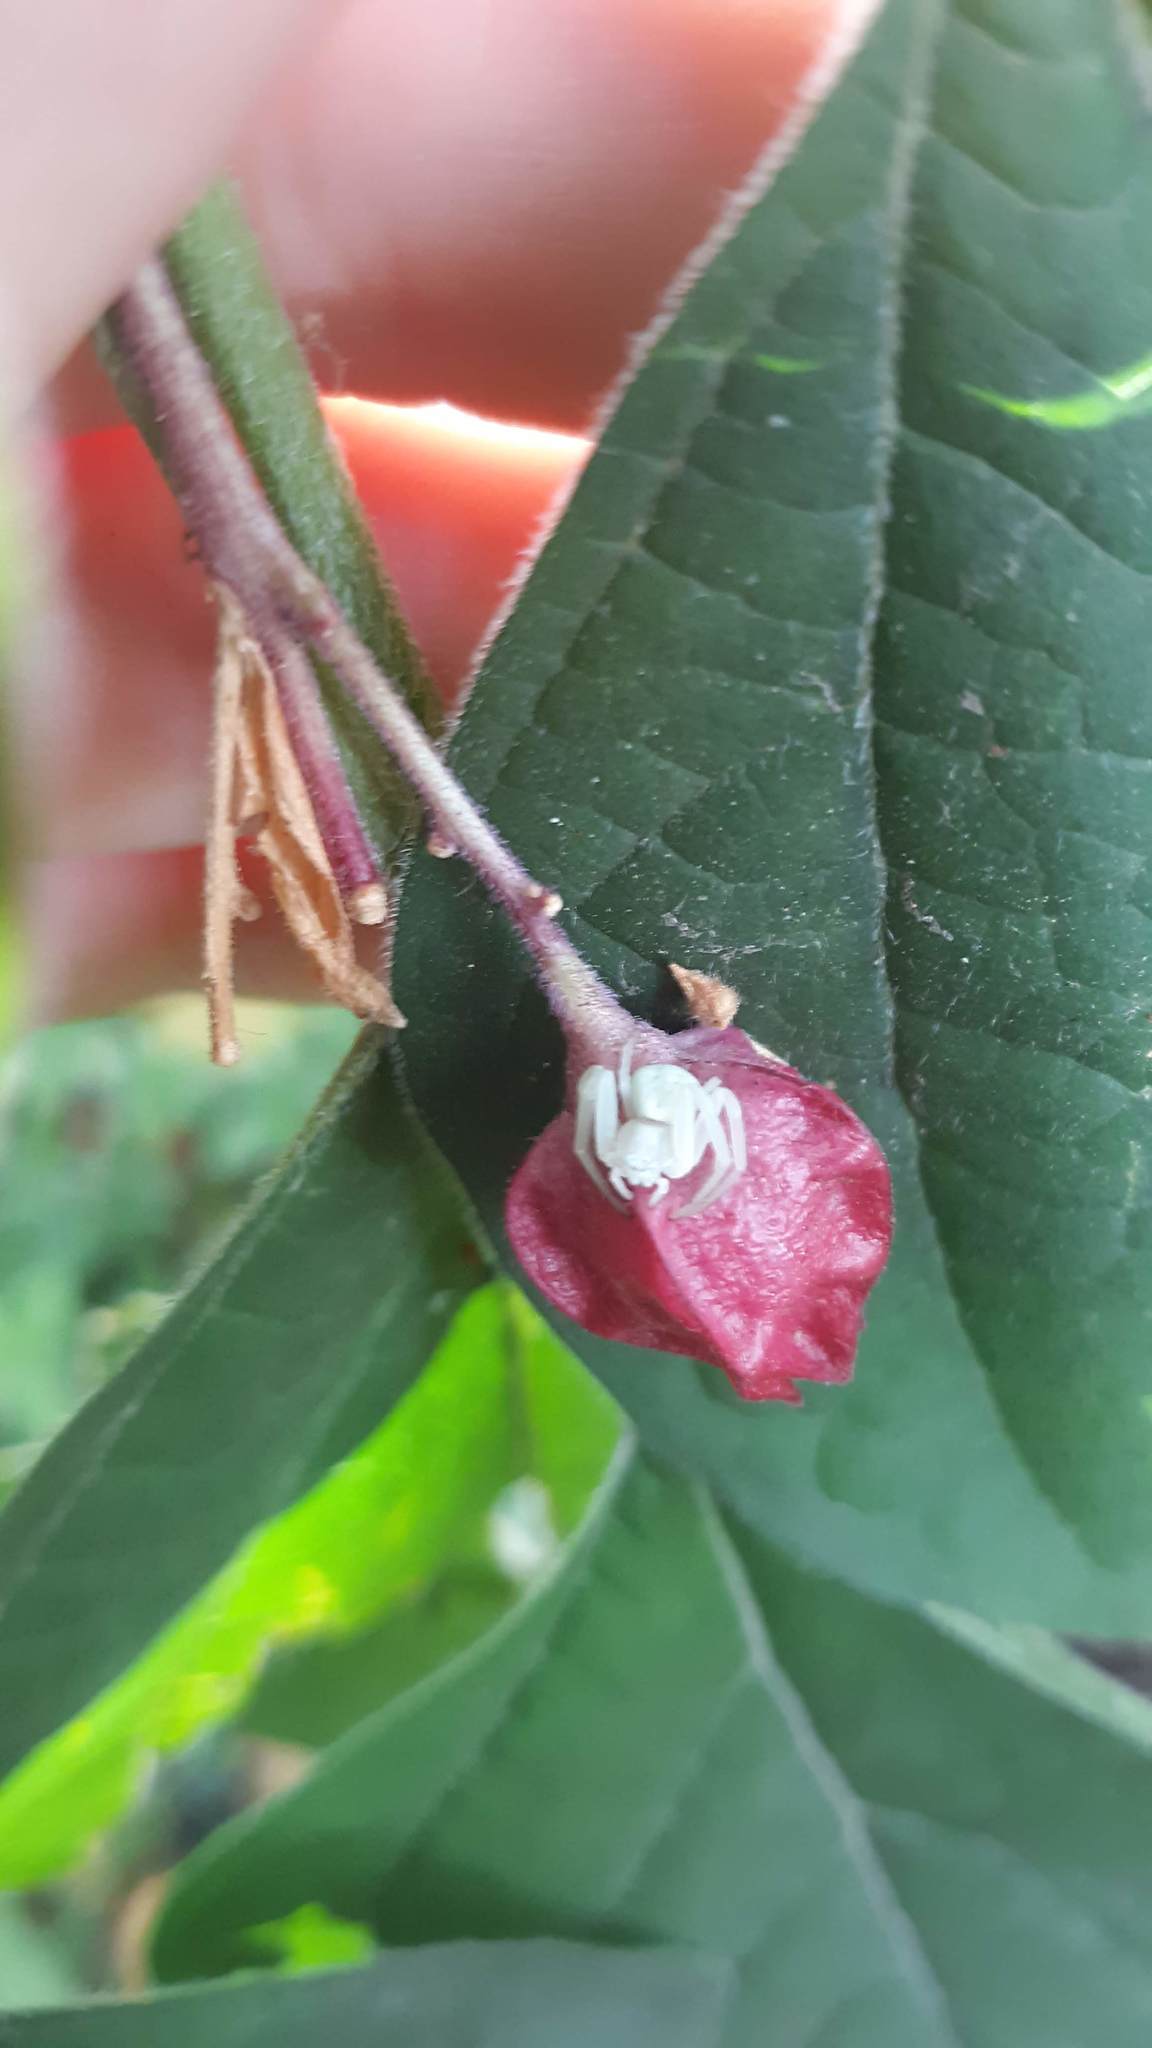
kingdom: Animalia
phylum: Arthropoda
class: Arachnida
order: Araneae
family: Thomisidae
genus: Misumena
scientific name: Misumena vatia
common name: Goldenrod crab spider
